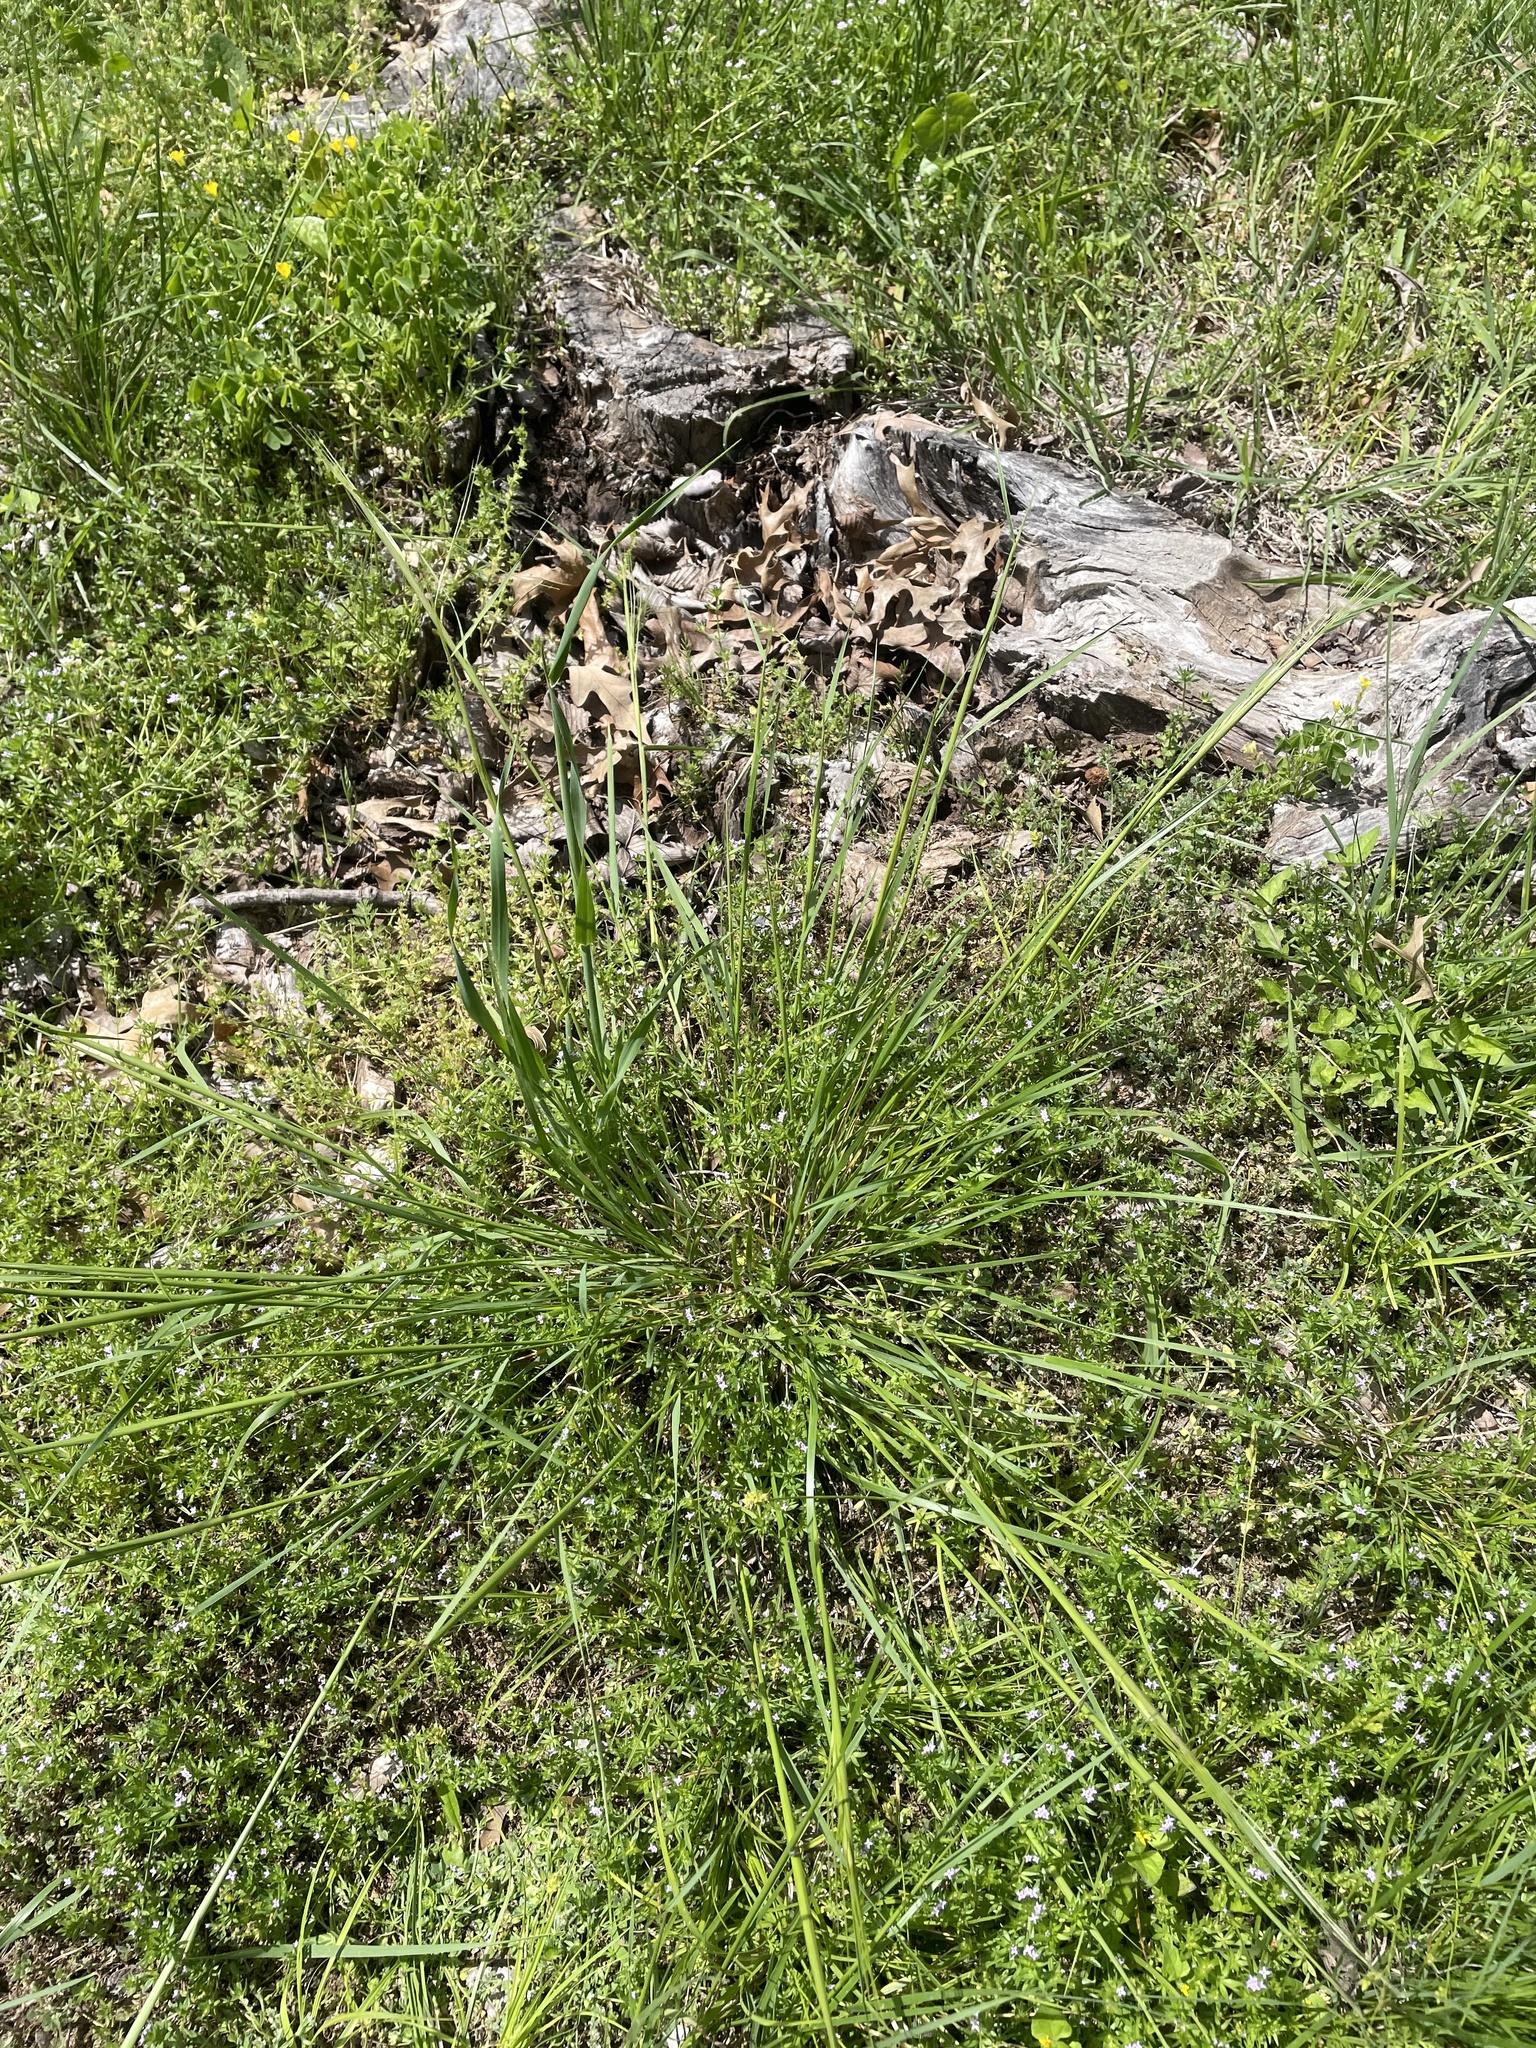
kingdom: Plantae
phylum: Tracheophyta
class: Liliopsida
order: Poales
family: Poaceae
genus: Nassella
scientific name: Nassella leucotricha
